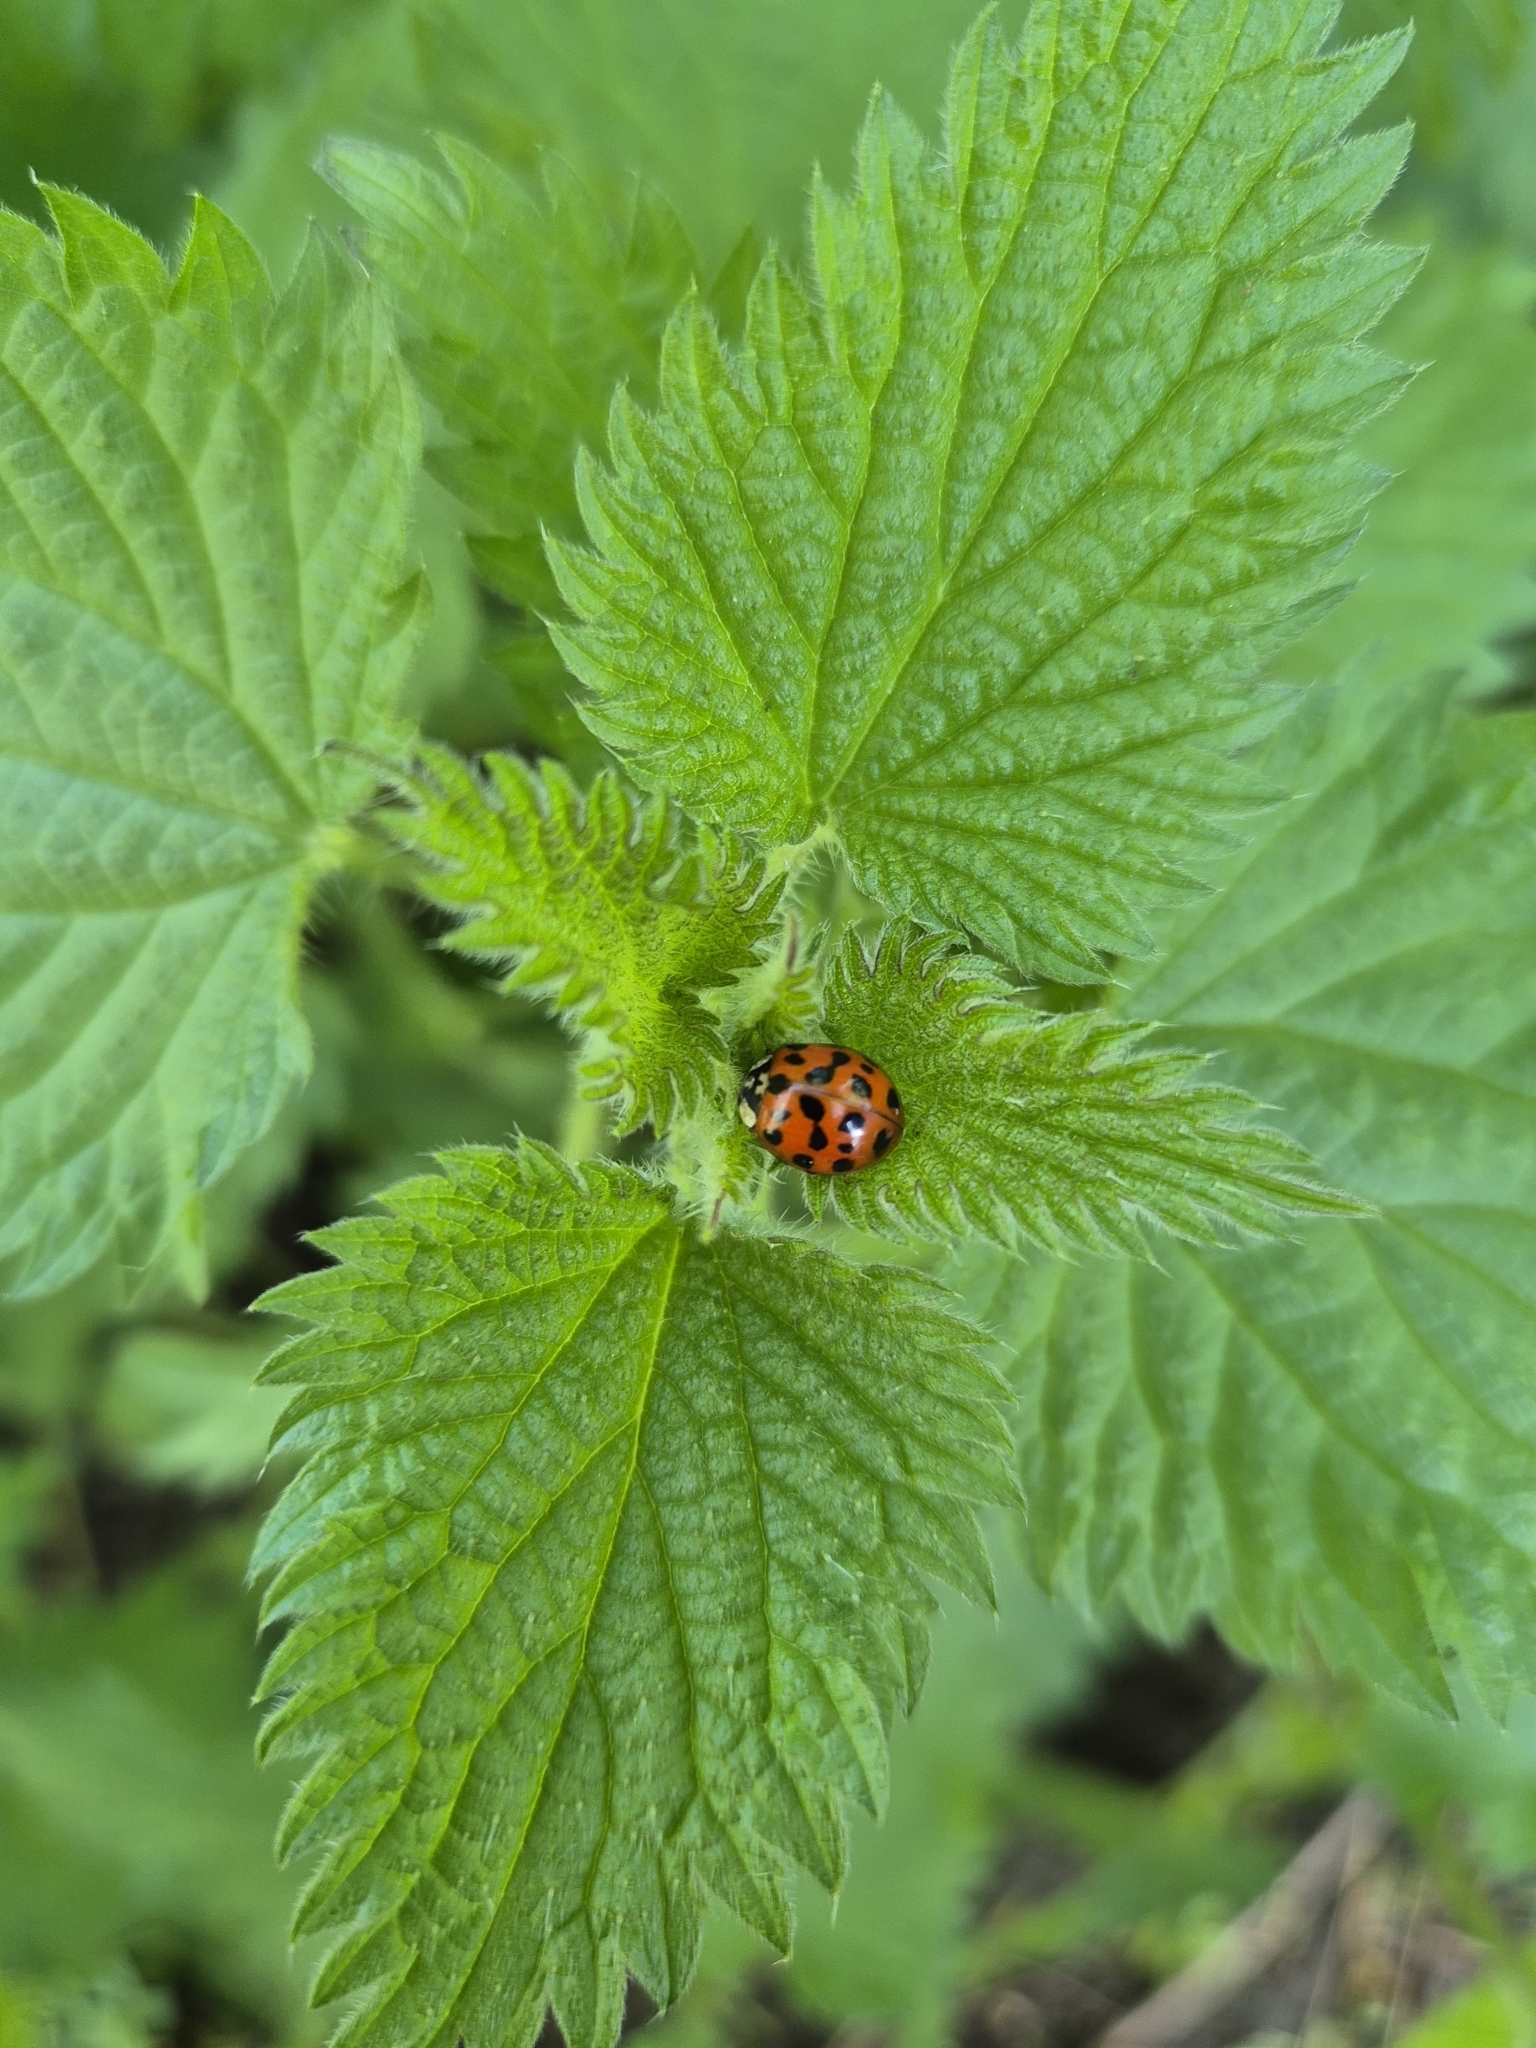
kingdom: Animalia
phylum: Arthropoda
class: Insecta
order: Coleoptera
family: Coccinellidae
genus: Harmonia
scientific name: Harmonia axyridis
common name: Harlequin ladybird
